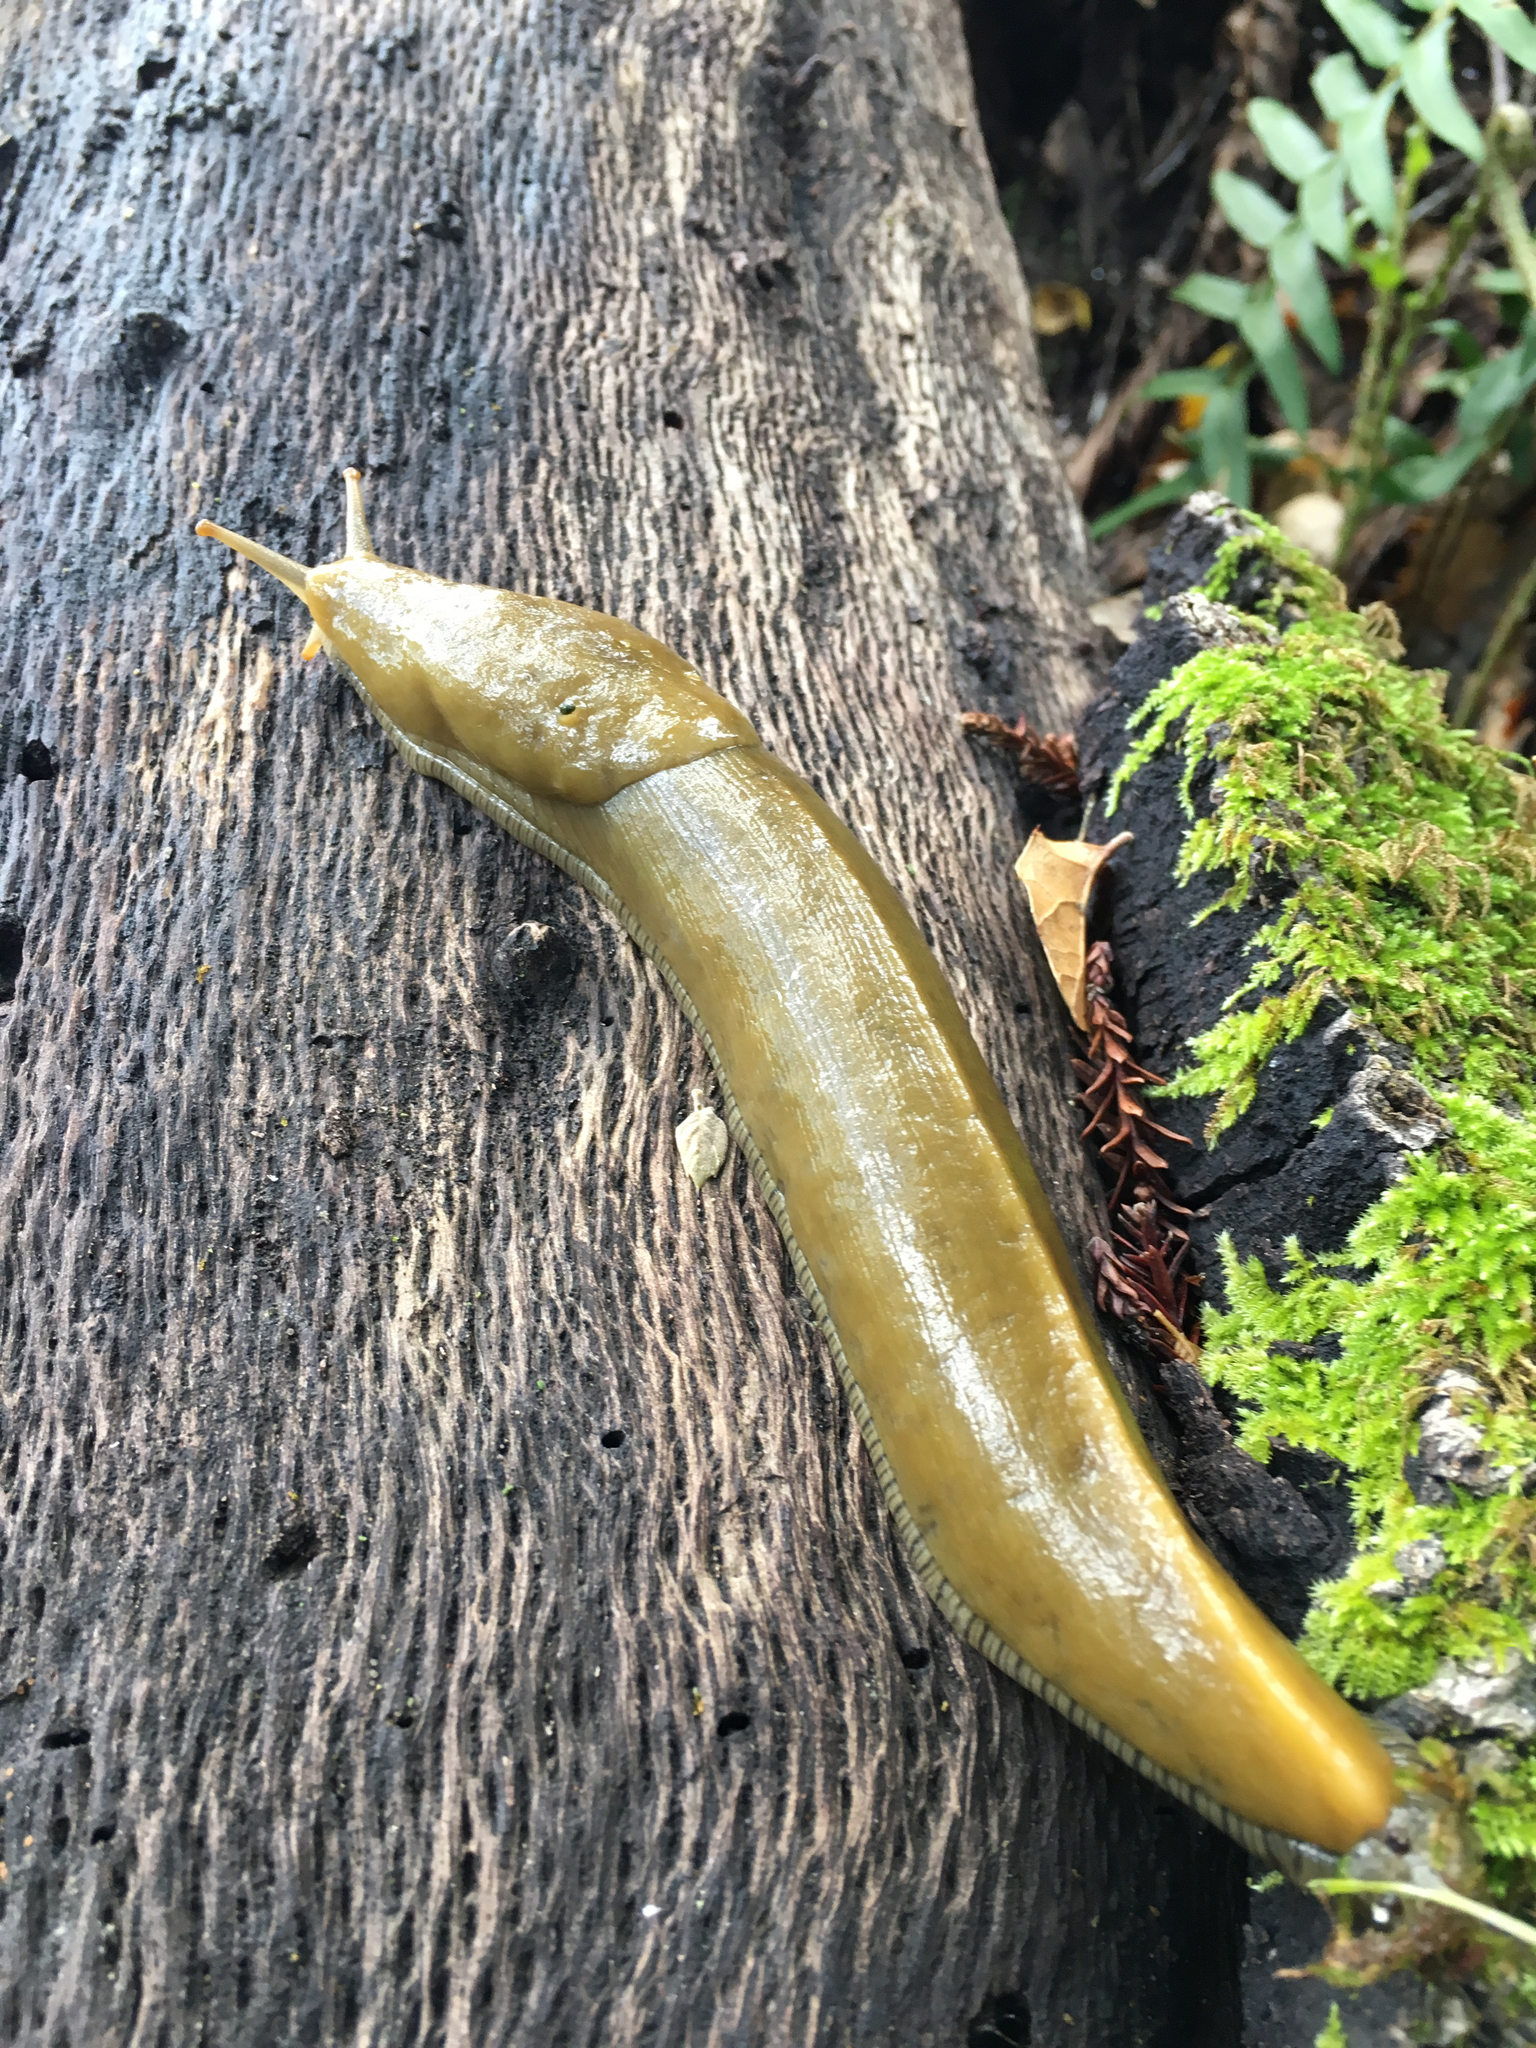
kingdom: Animalia
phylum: Mollusca
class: Gastropoda
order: Stylommatophora
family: Ariolimacidae
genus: Ariolimax
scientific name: Ariolimax buttoni
